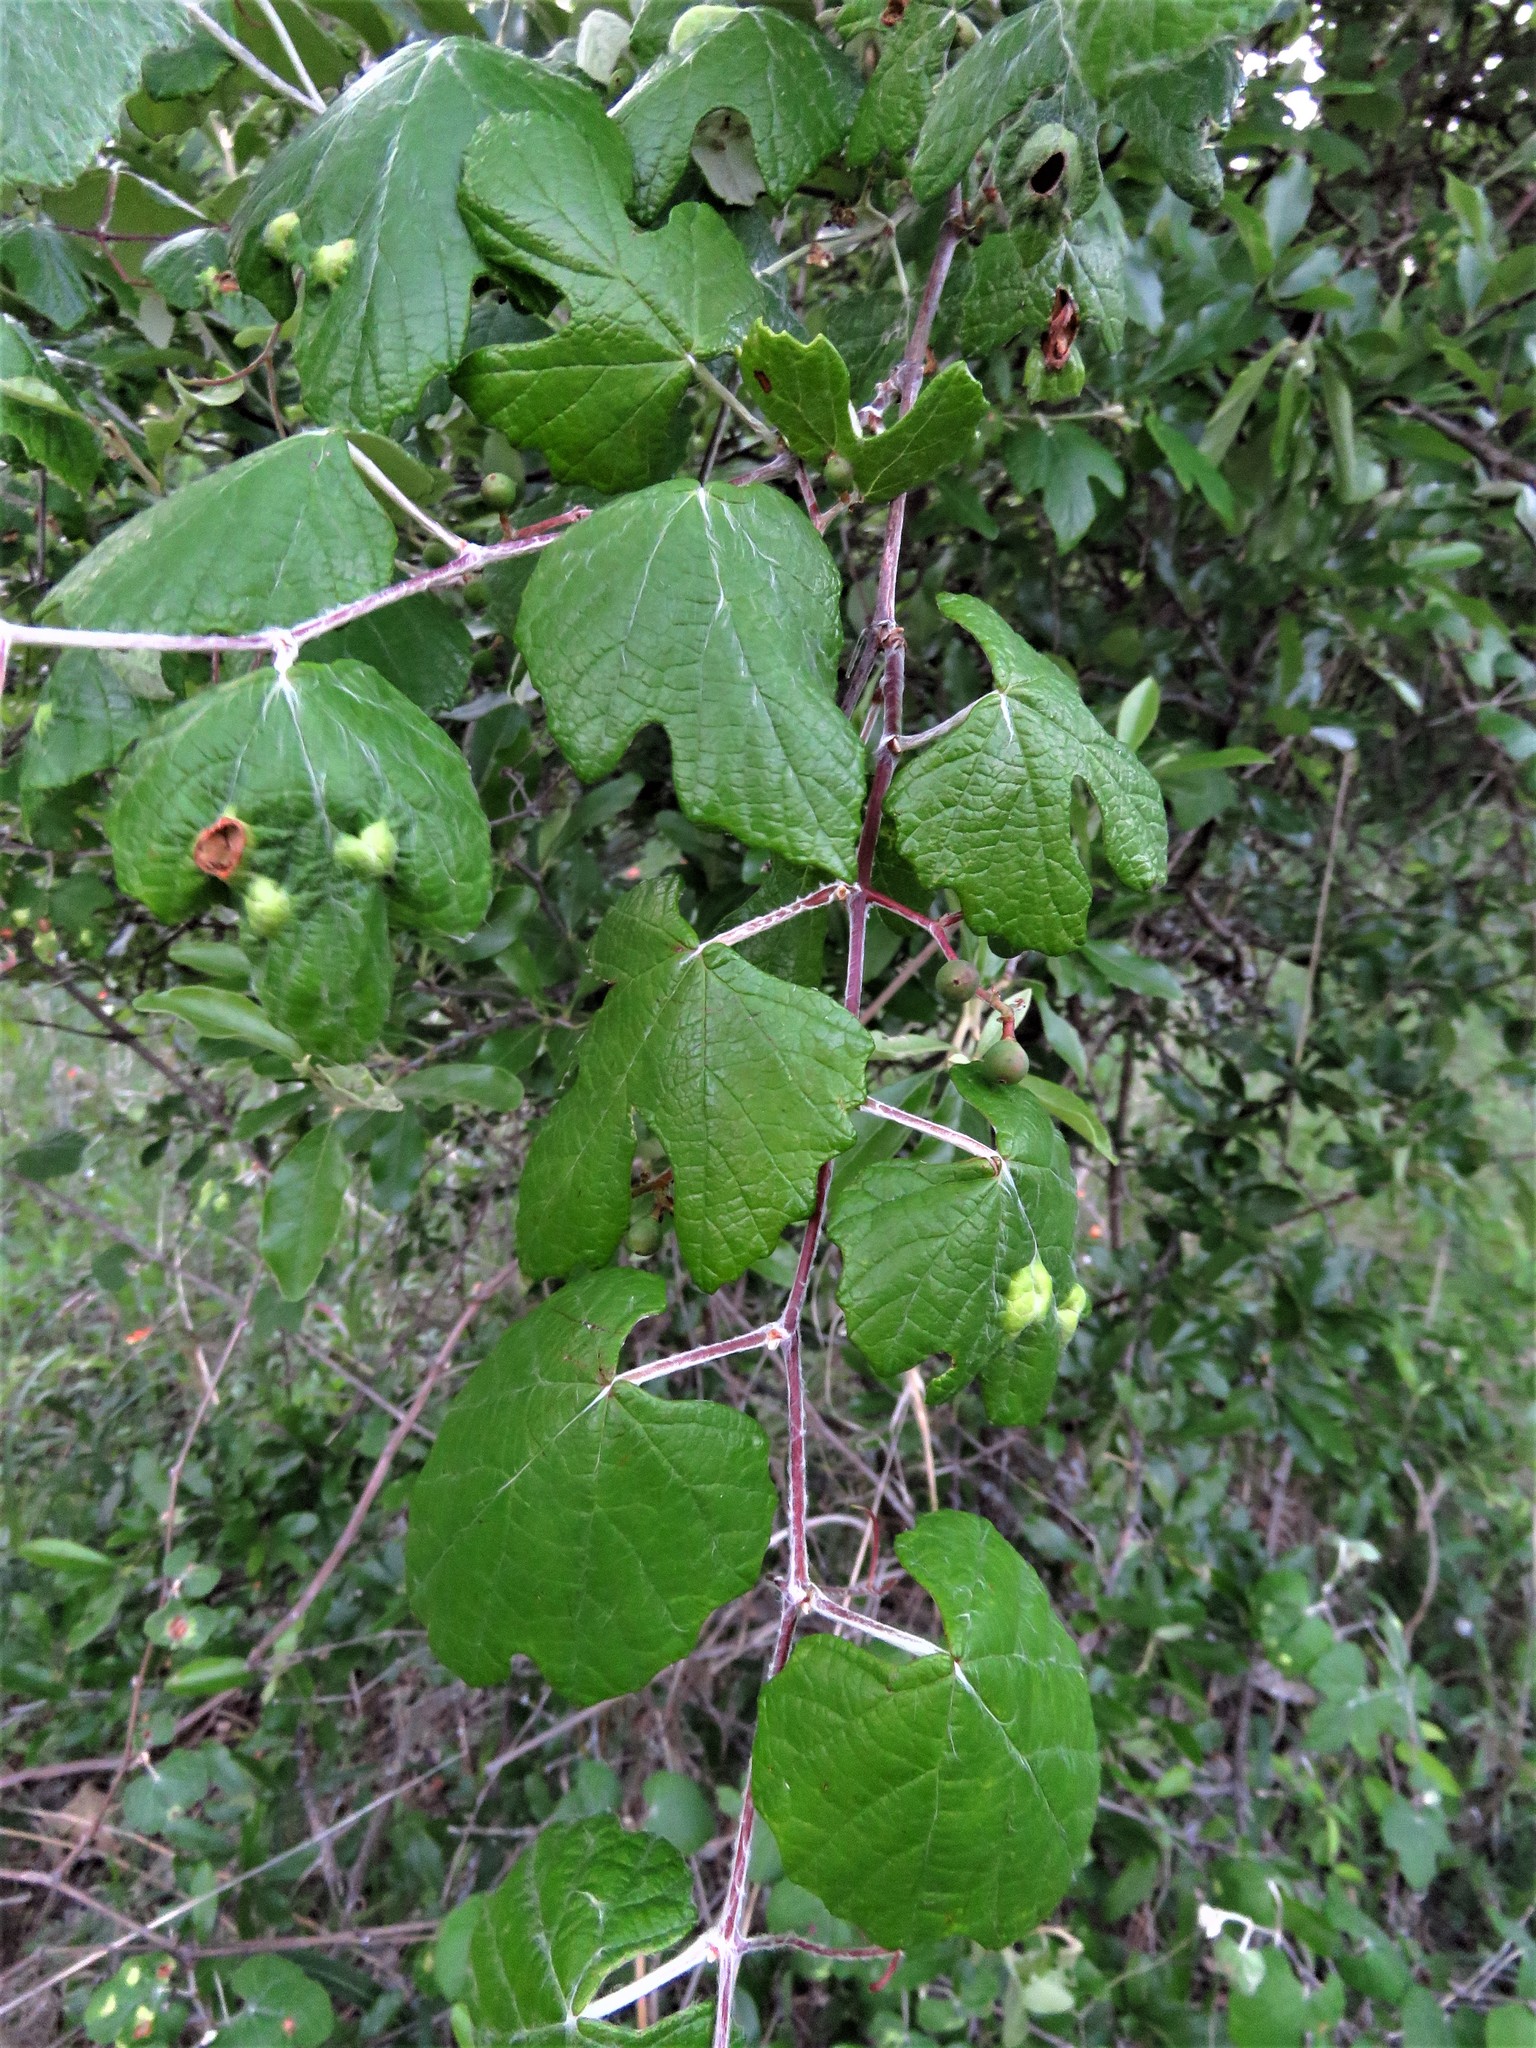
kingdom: Plantae
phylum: Tracheophyta
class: Magnoliopsida
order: Vitales
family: Vitaceae
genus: Vitis
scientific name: Vitis mustangensis
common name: Mustang grape
